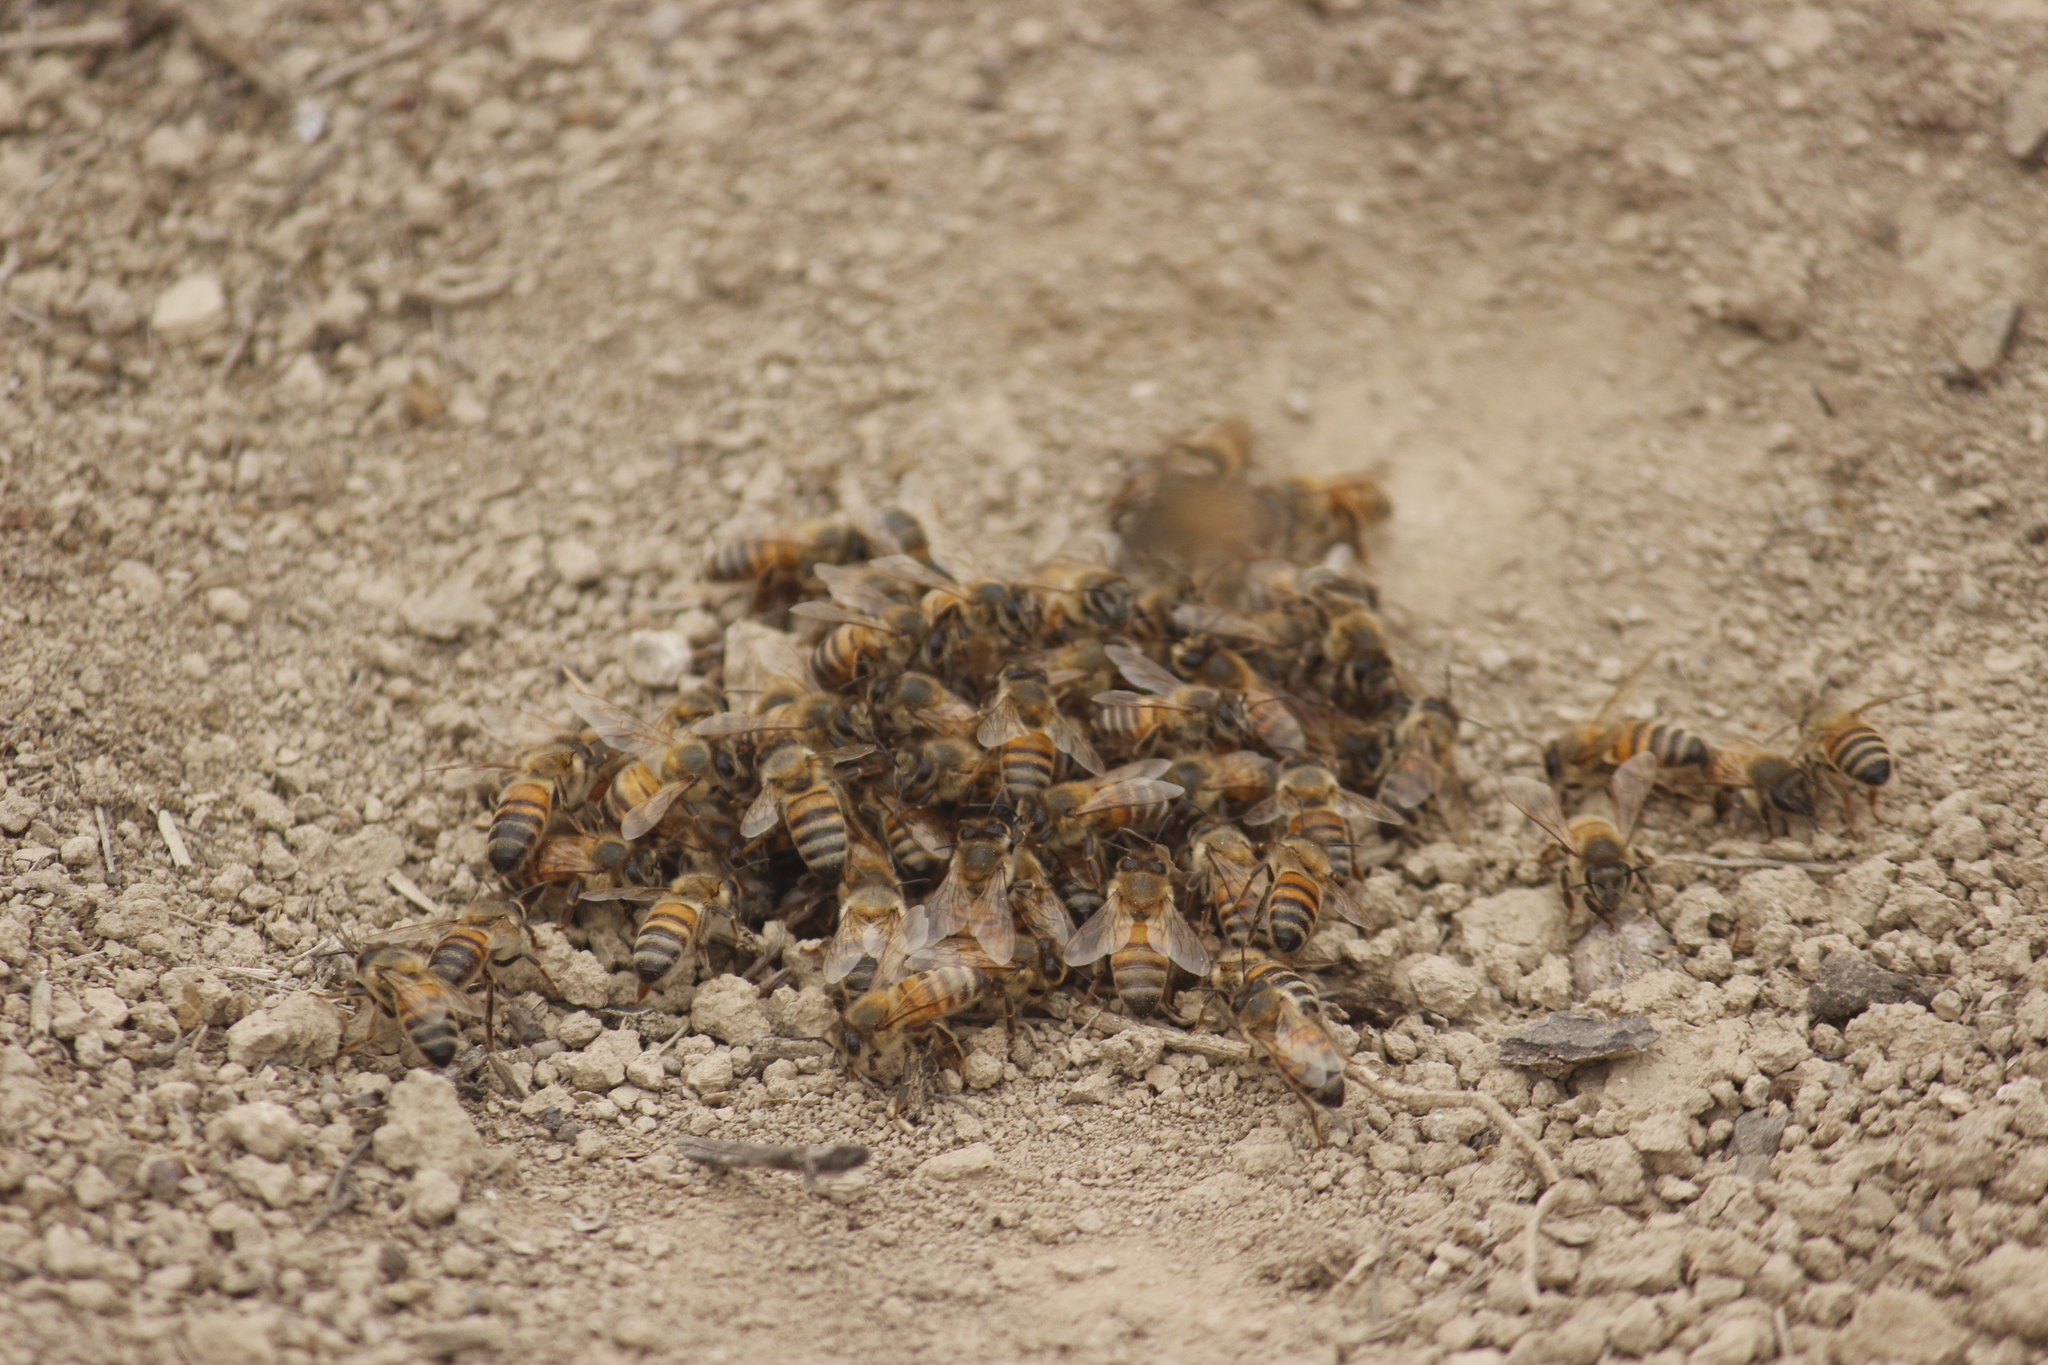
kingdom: Animalia
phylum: Arthropoda
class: Insecta
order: Hymenoptera
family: Apidae
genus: Apis
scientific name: Apis mellifera
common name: Honey bee
